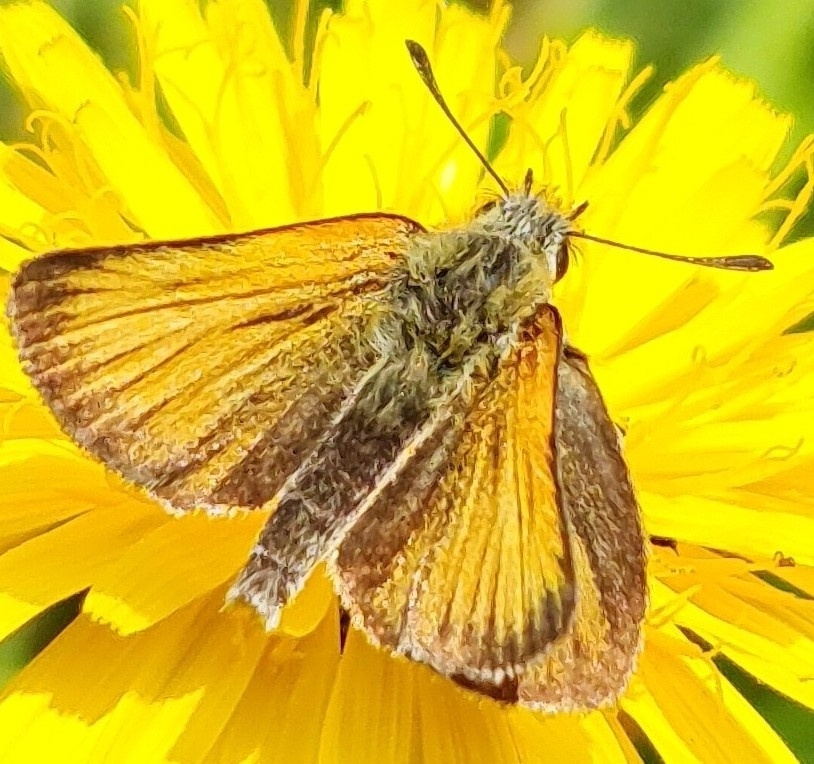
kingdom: Animalia
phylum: Arthropoda
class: Insecta
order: Lepidoptera
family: Hesperiidae
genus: Thymelicus
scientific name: Thymelicus lineola
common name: Essex skipper
